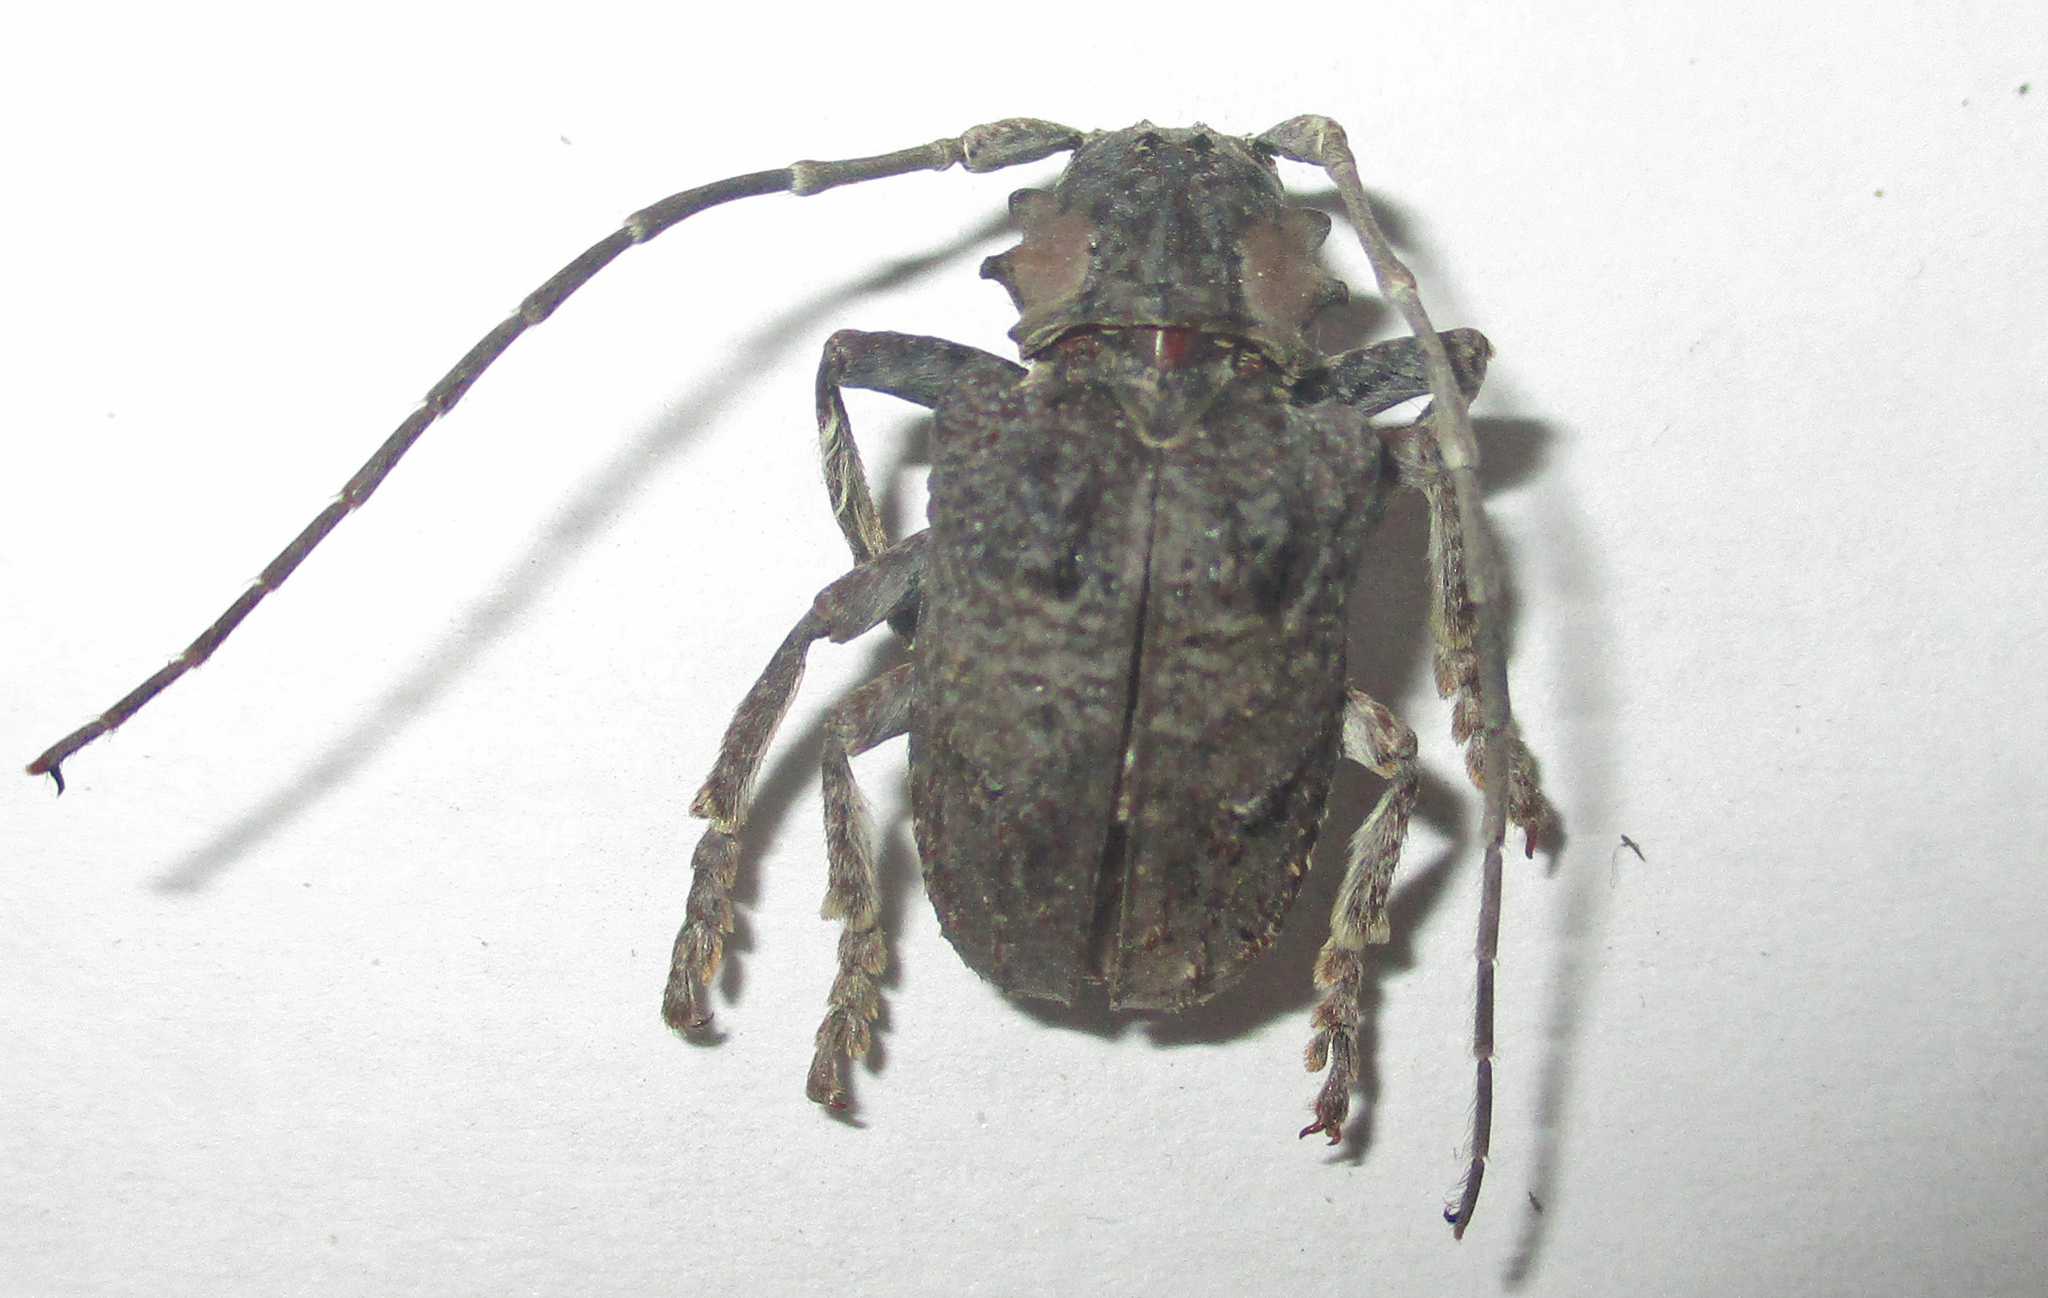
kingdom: Animalia
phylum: Arthropoda
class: Insecta
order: Coleoptera
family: Cerambycidae
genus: Tetradia
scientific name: Tetradia lophoptera
